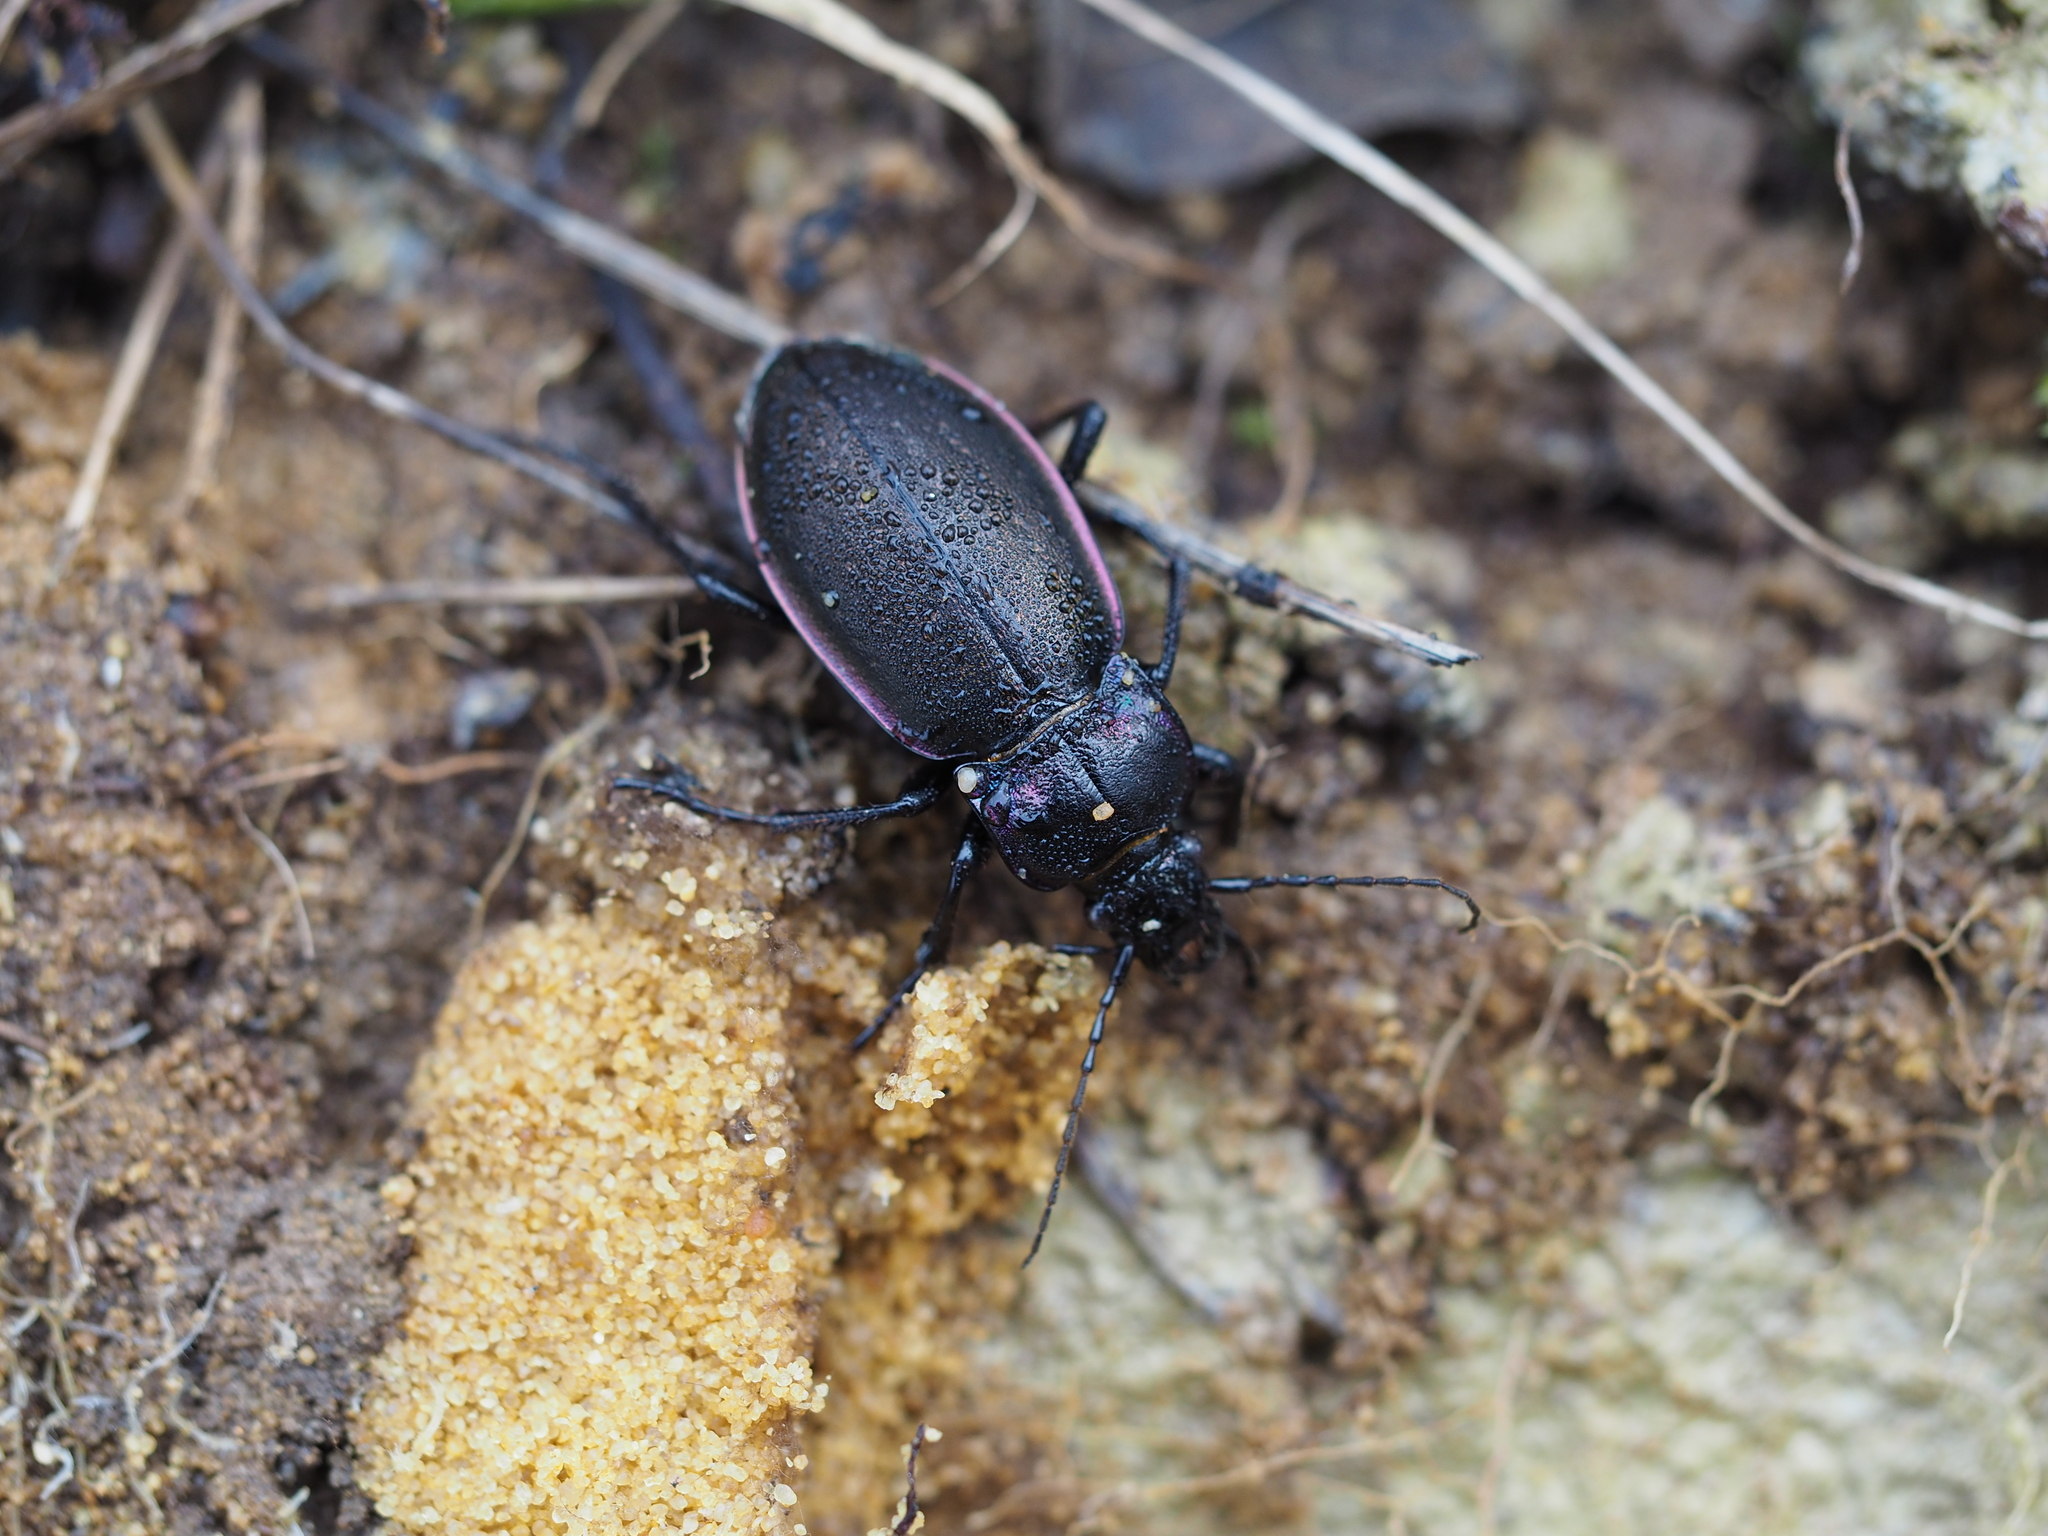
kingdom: Animalia
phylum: Arthropoda
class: Insecta
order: Coleoptera
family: Carabidae
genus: Carabus
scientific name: Carabus nemoralis
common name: European ground beetle
